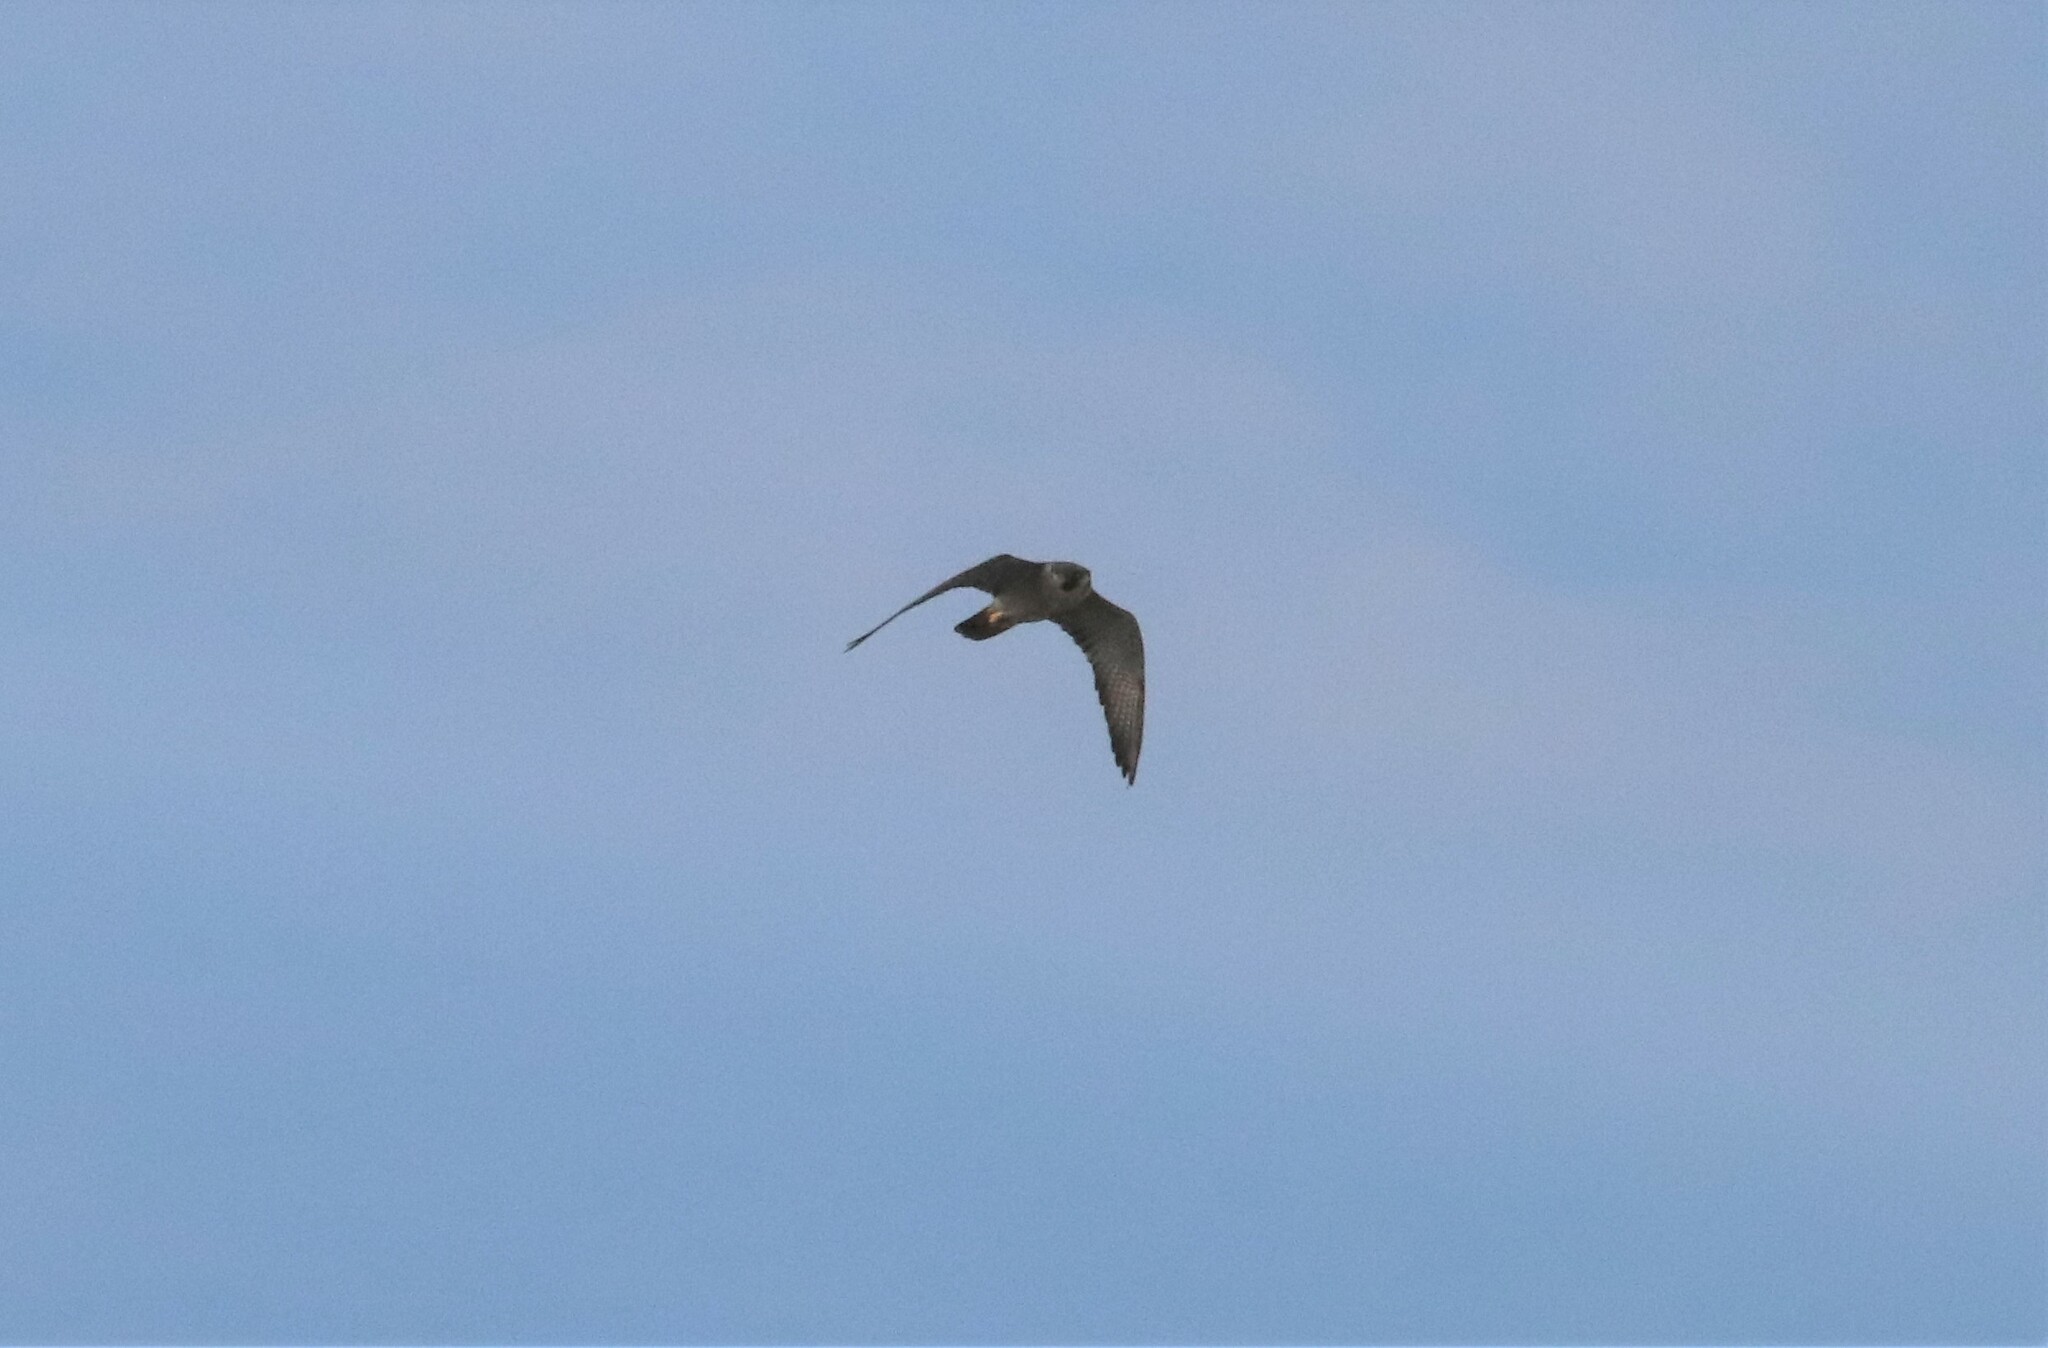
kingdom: Animalia
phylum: Chordata
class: Aves
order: Falconiformes
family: Falconidae
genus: Falco
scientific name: Falco peregrinus
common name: Peregrine falcon
